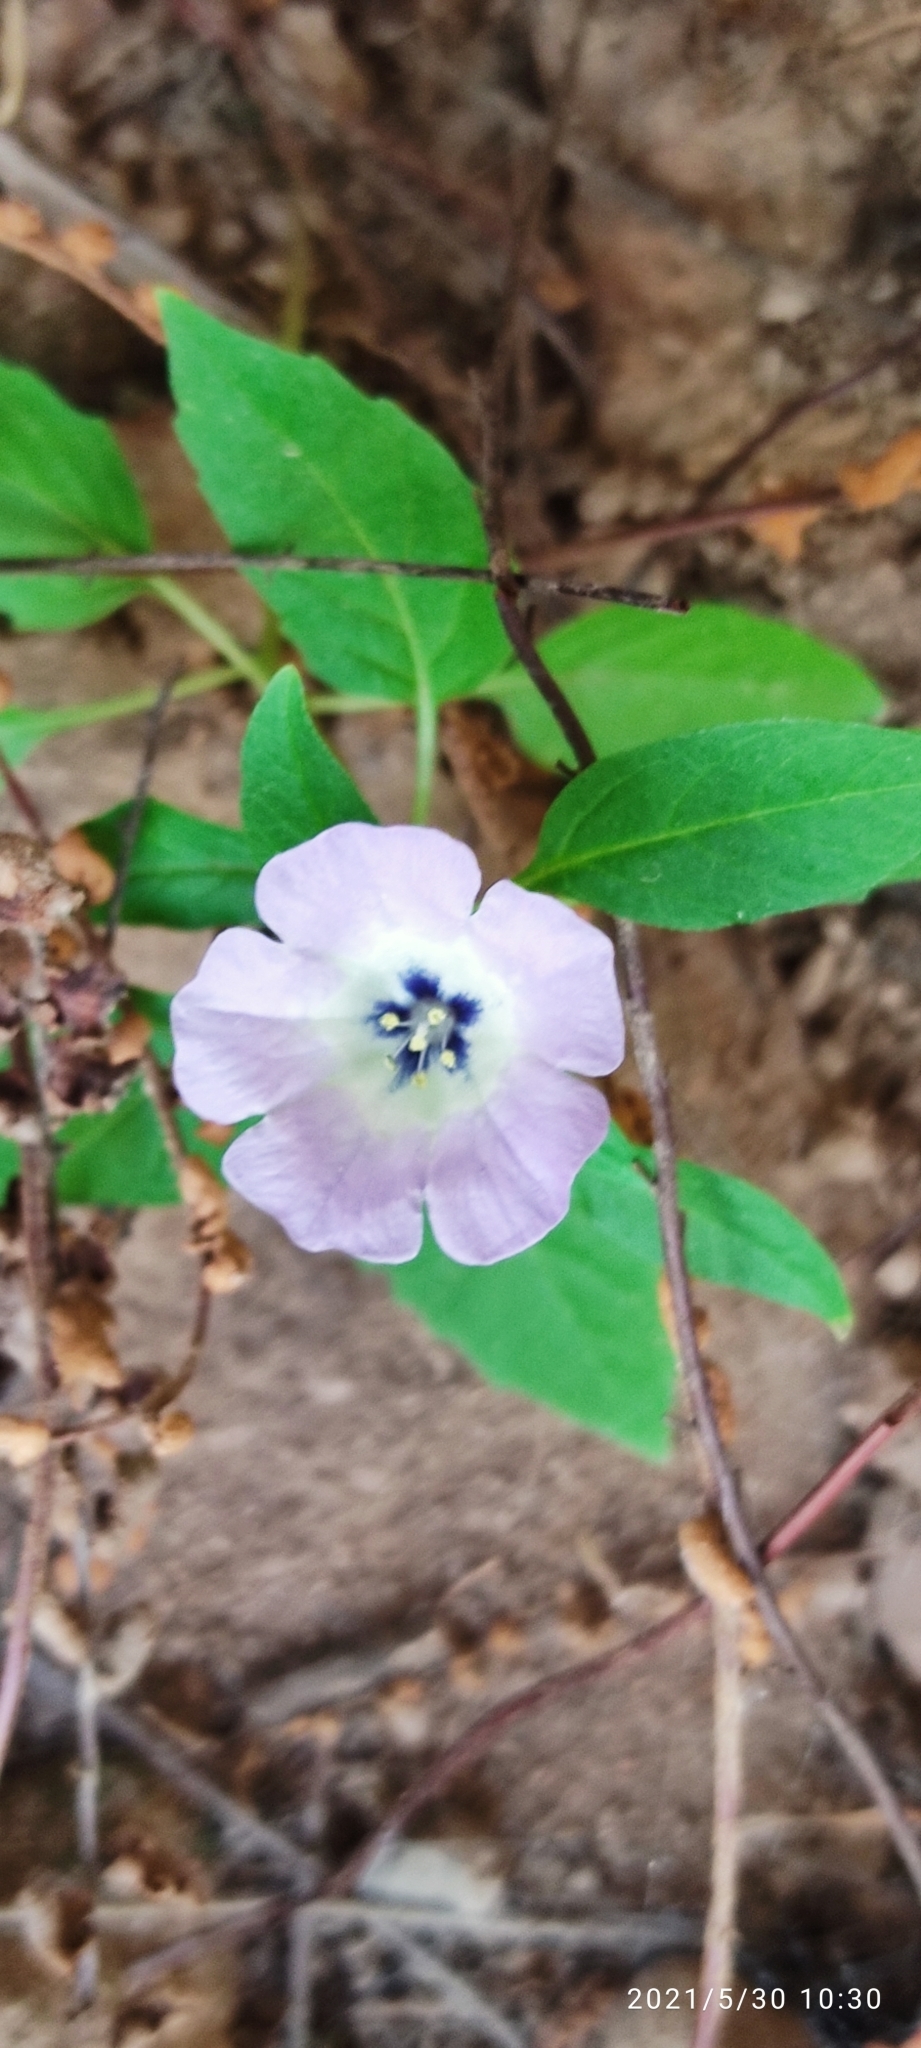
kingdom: Plantae
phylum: Tracheophyta
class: Magnoliopsida
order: Solanales
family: Solanaceae
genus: Nicandra
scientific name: Nicandra physalodes
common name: Apple-of-peru
